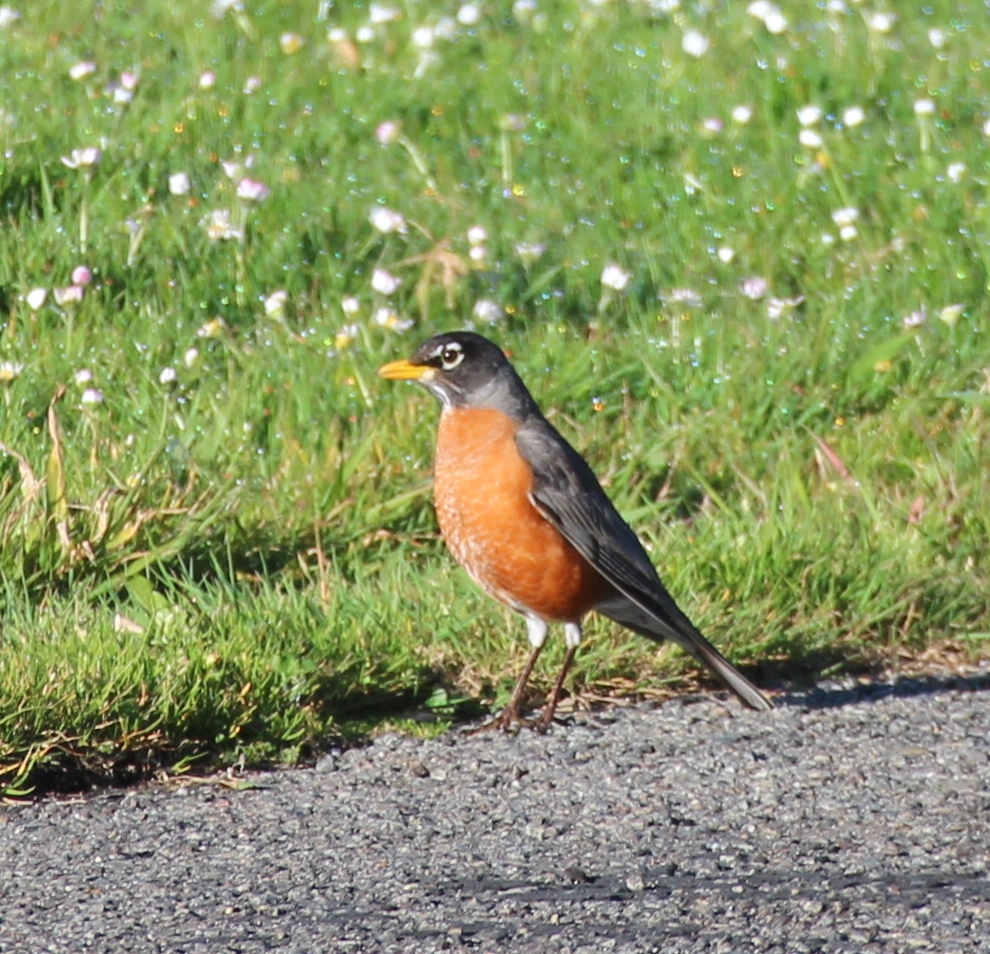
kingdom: Animalia
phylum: Chordata
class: Aves
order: Passeriformes
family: Turdidae
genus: Turdus
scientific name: Turdus migratorius
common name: American robin
